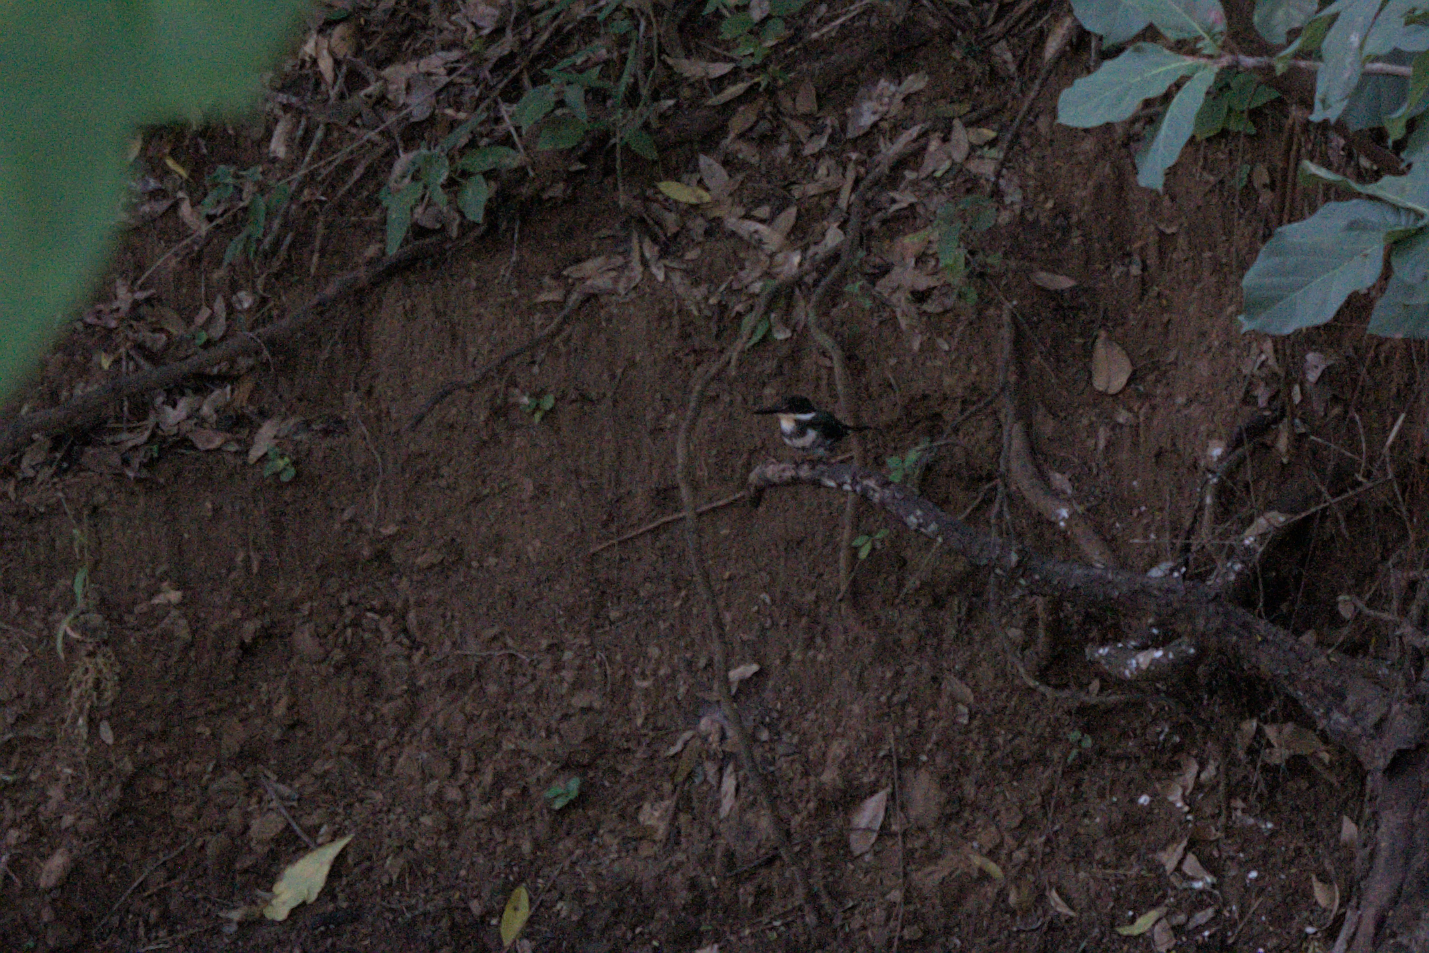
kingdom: Animalia
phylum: Chordata
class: Aves
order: Coraciiformes
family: Alcedinidae
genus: Chloroceryle
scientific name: Chloroceryle americana
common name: Green kingfisher
